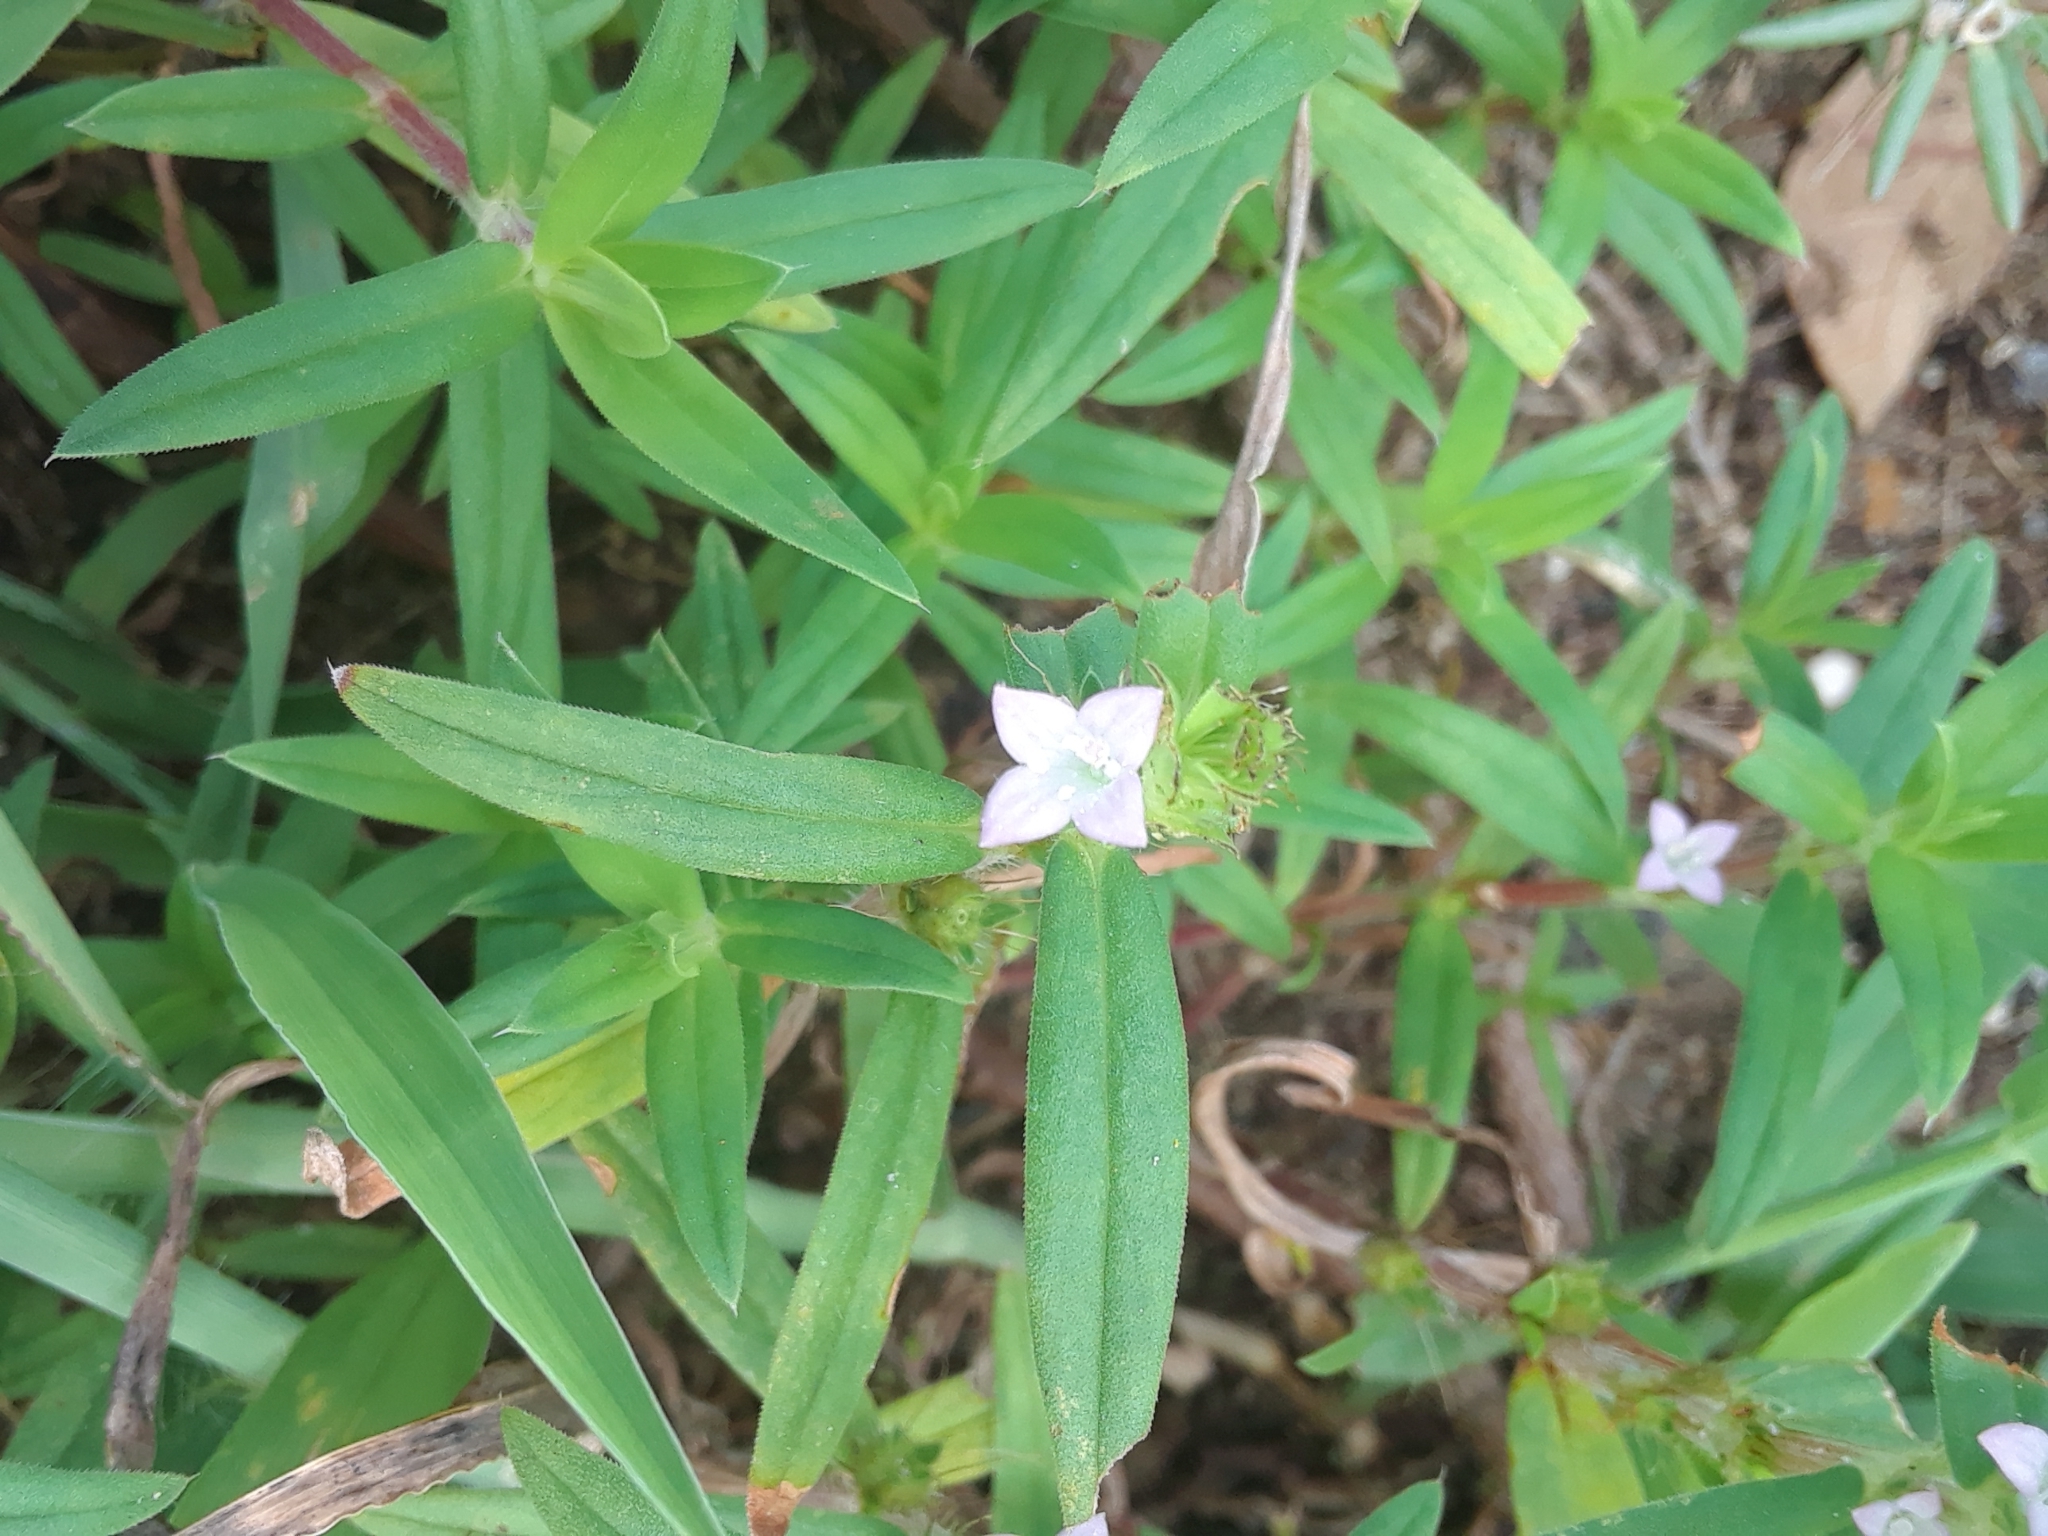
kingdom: Plantae
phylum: Tracheophyta
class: Magnoliopsida
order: Gentianales
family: Rubiaceae
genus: Hexasepalum
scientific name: Hexasepalum teres
